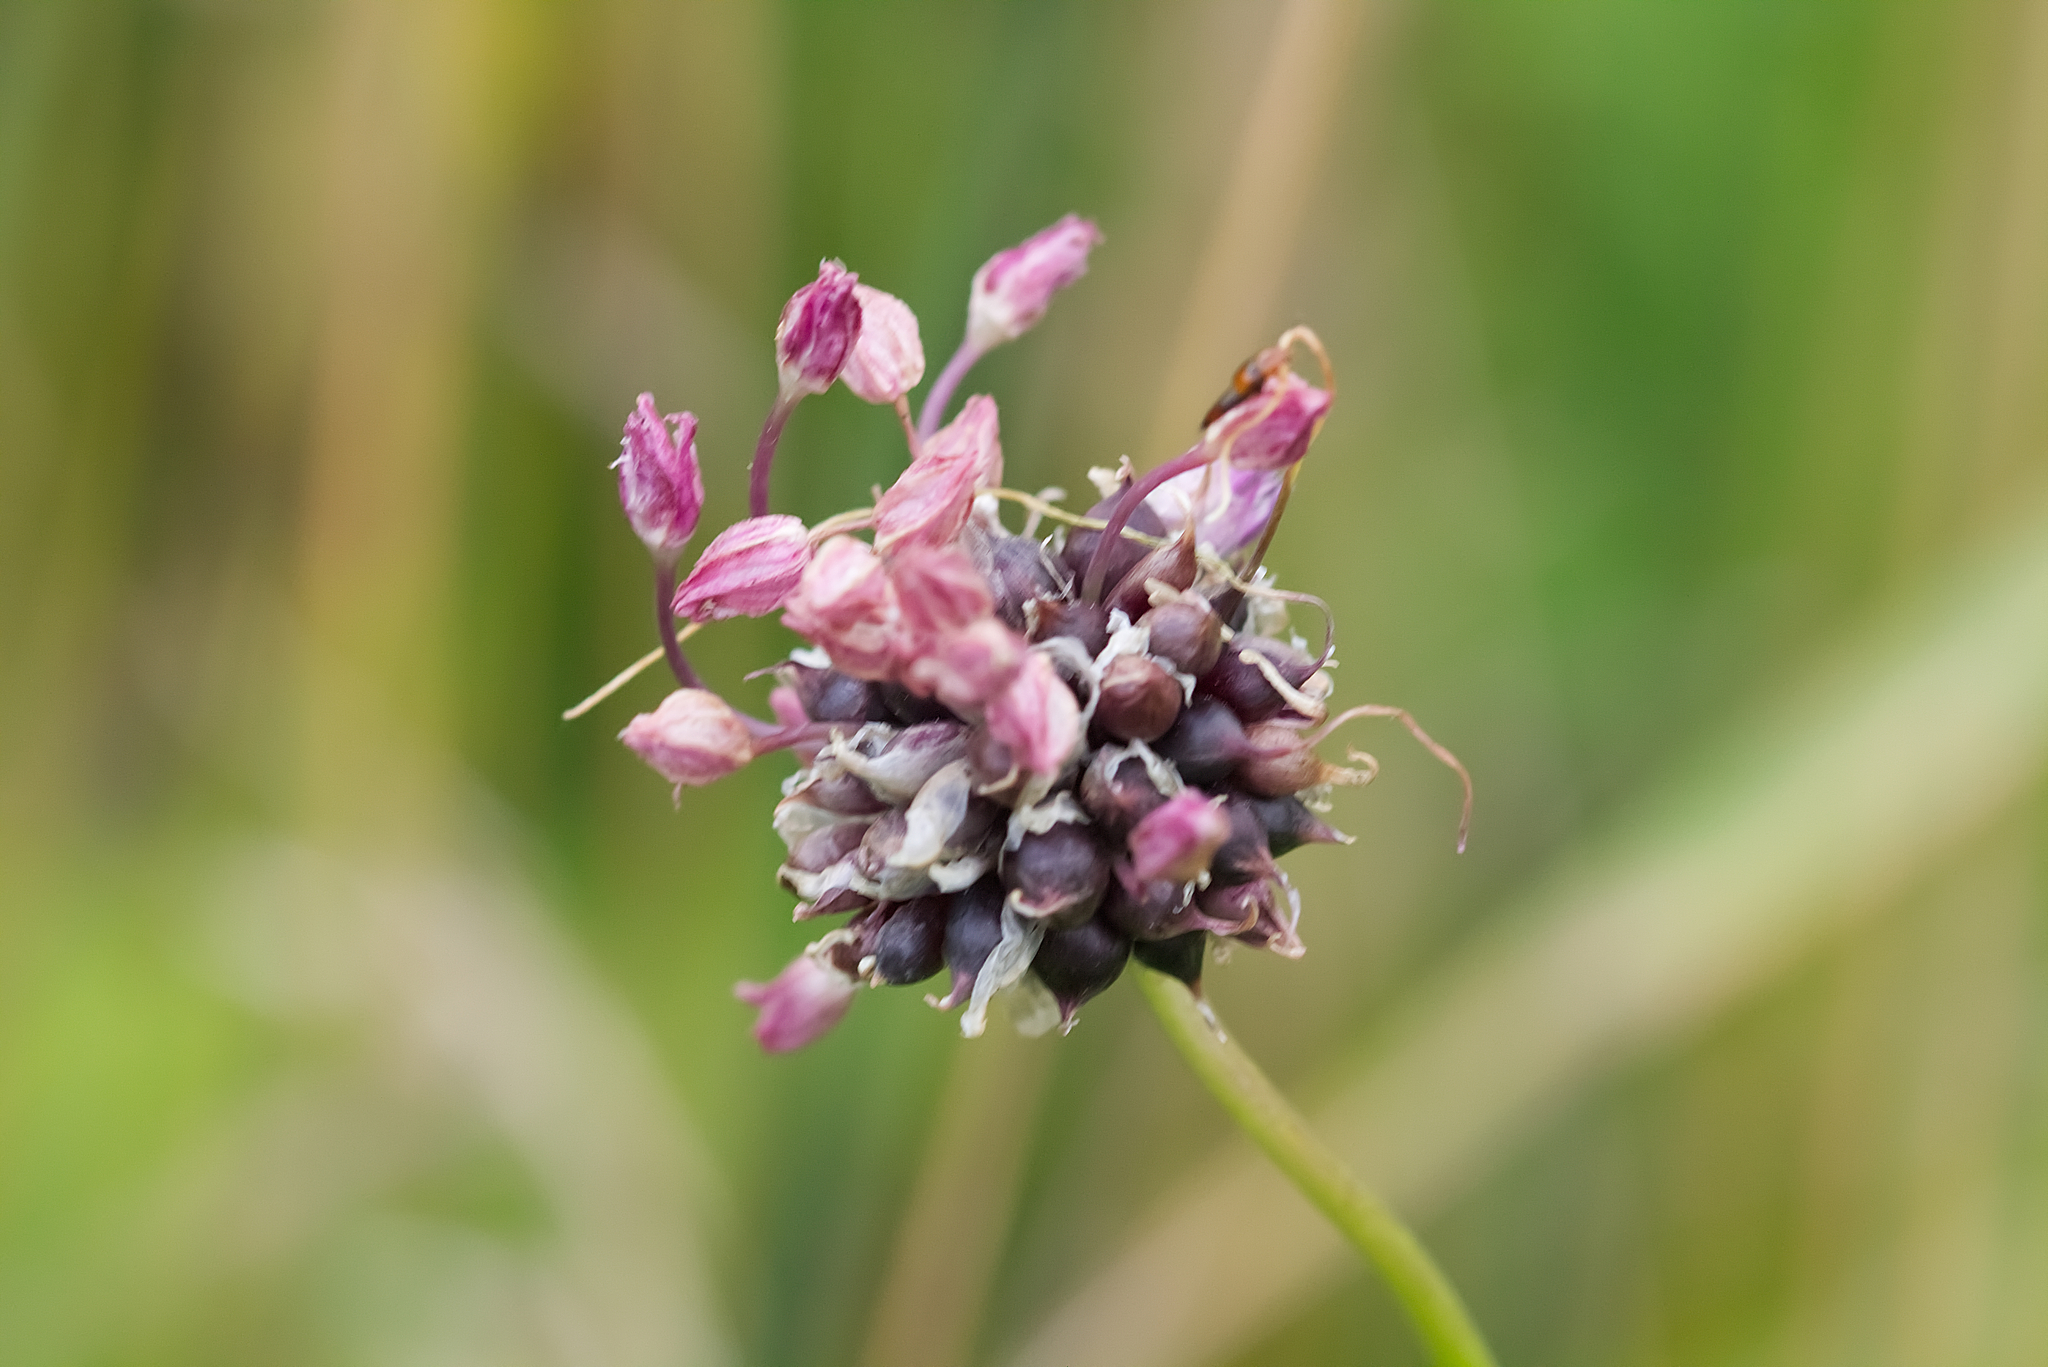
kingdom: Plantae
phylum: Tracheophyta
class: Liliopsida
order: Asparagales
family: Amaryllidaceae
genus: Allium
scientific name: Allium scorodoprasum
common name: Sand leek
